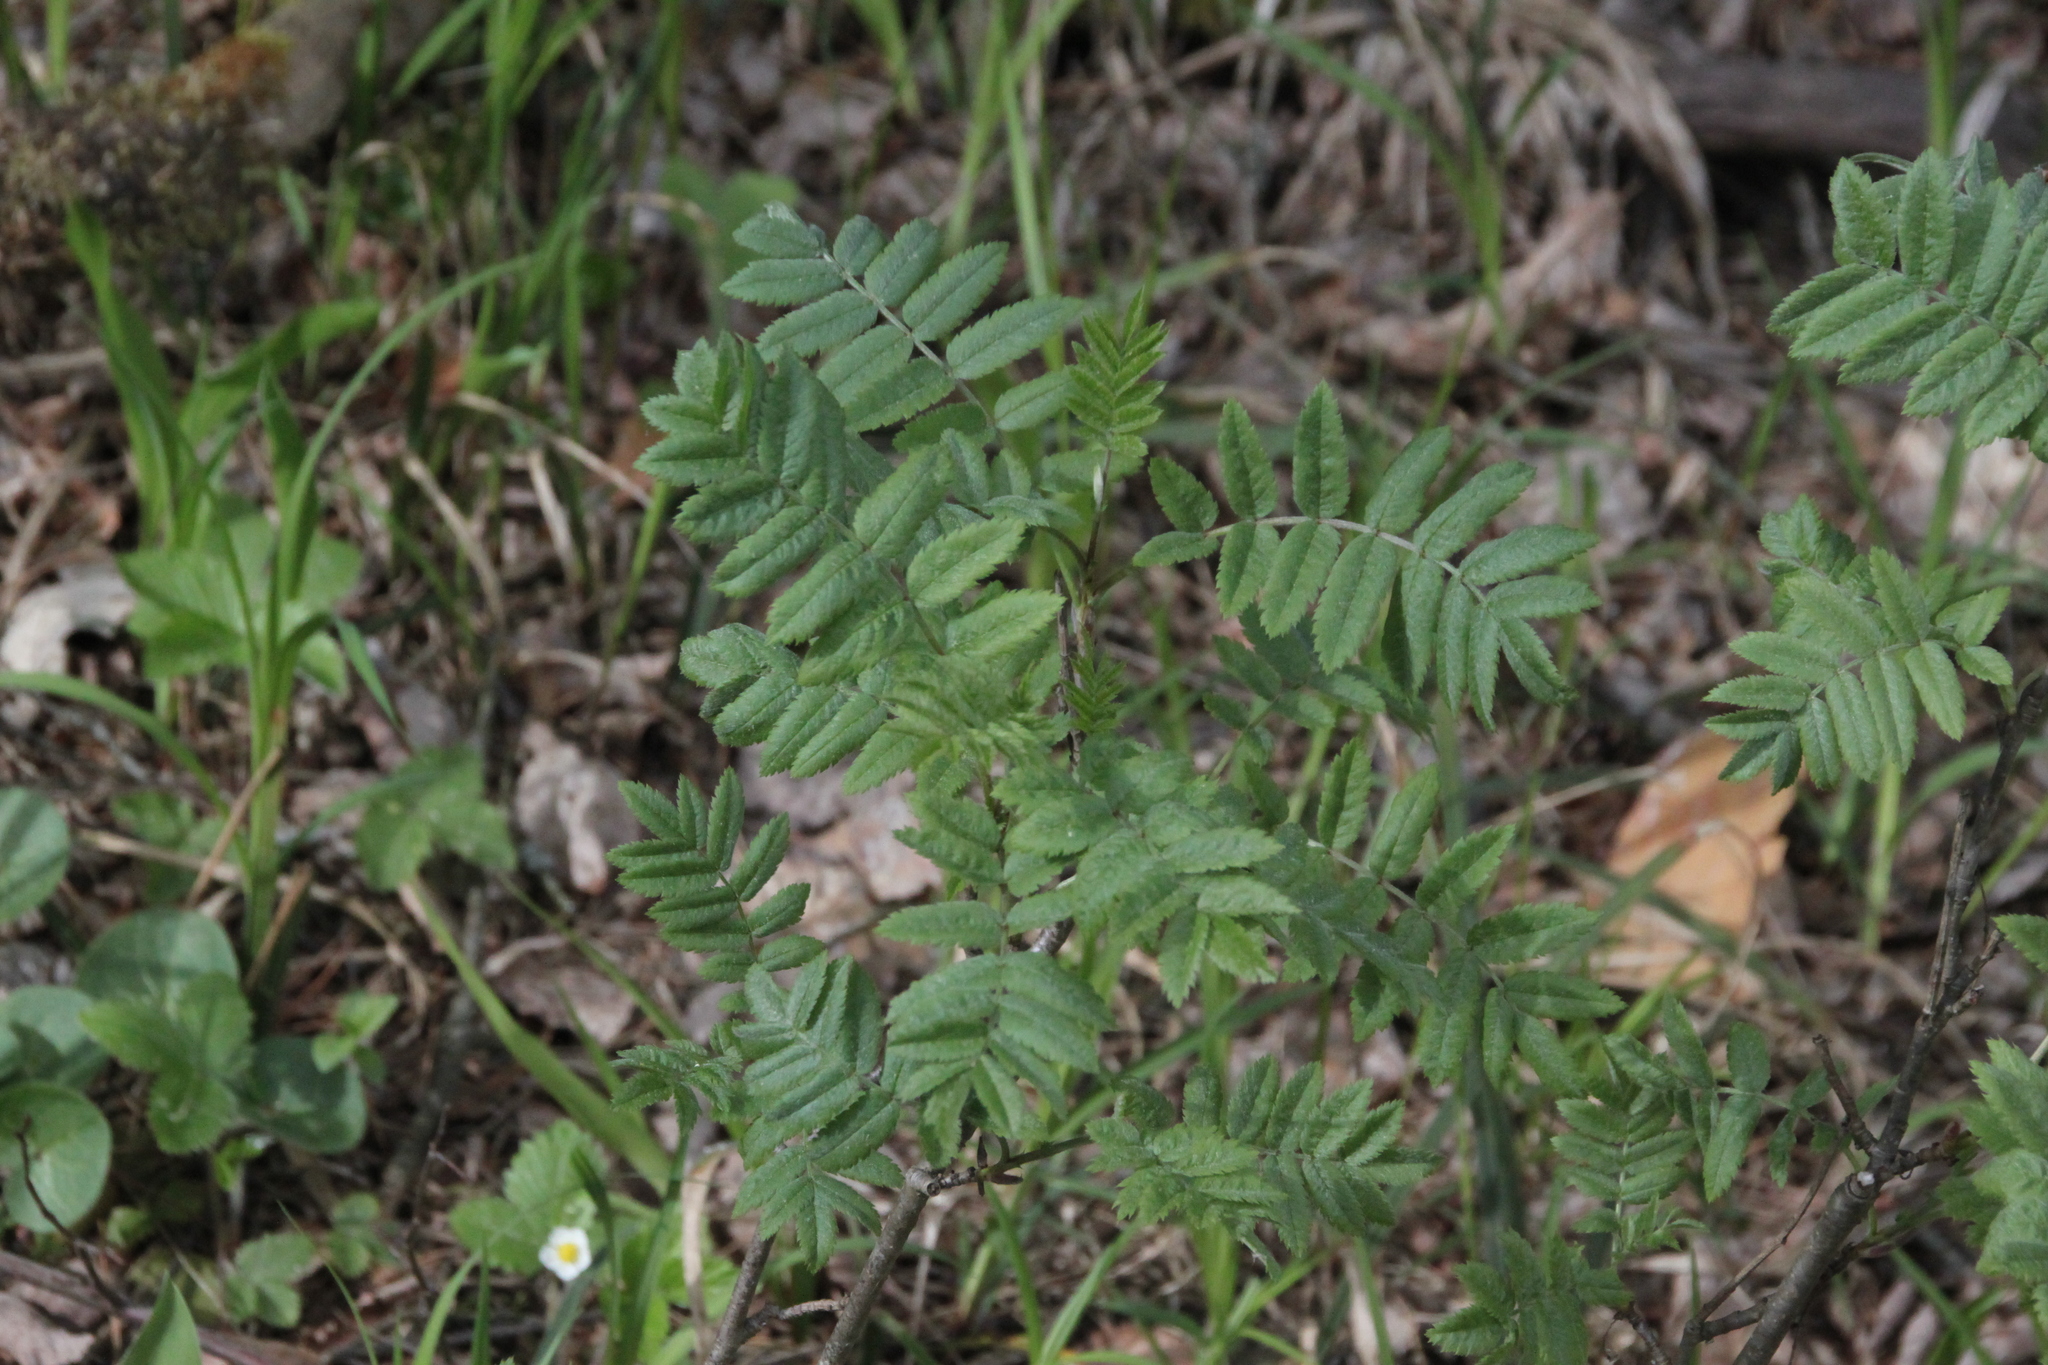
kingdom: Plantae
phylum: Tracheophyta
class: Magnoliopsida
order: Rosales
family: Rosaceae
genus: Sorbus
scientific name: Sorbus aucuparia
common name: Rowan
